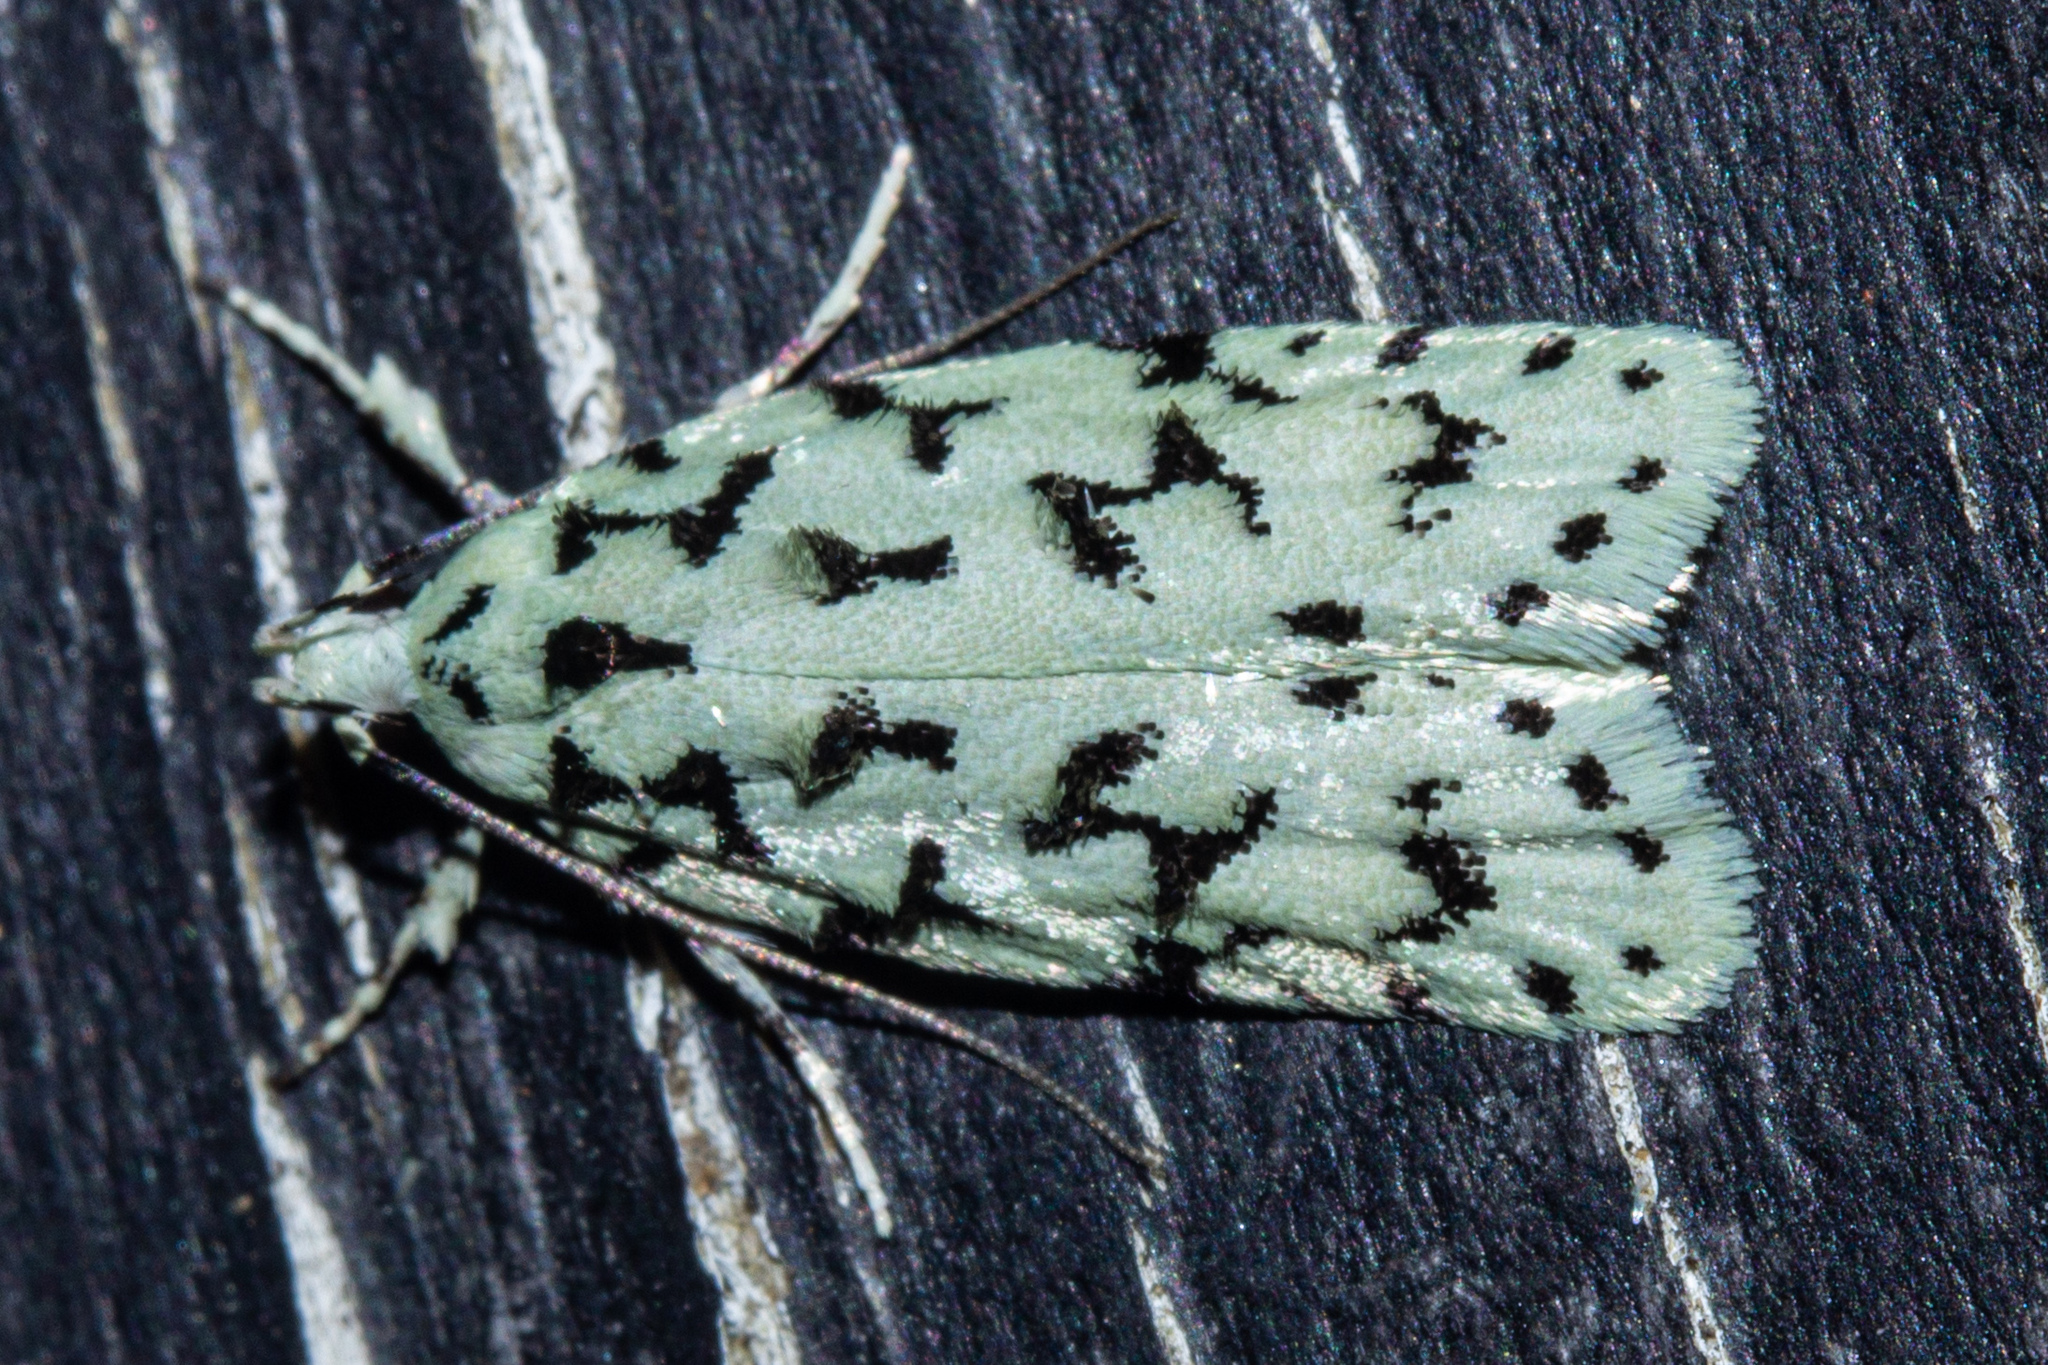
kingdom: Animalia
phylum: Arthropoda
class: Insecta
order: Lepidoptera
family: Oecophoridae
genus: Izatha
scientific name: Izatha huttoni
